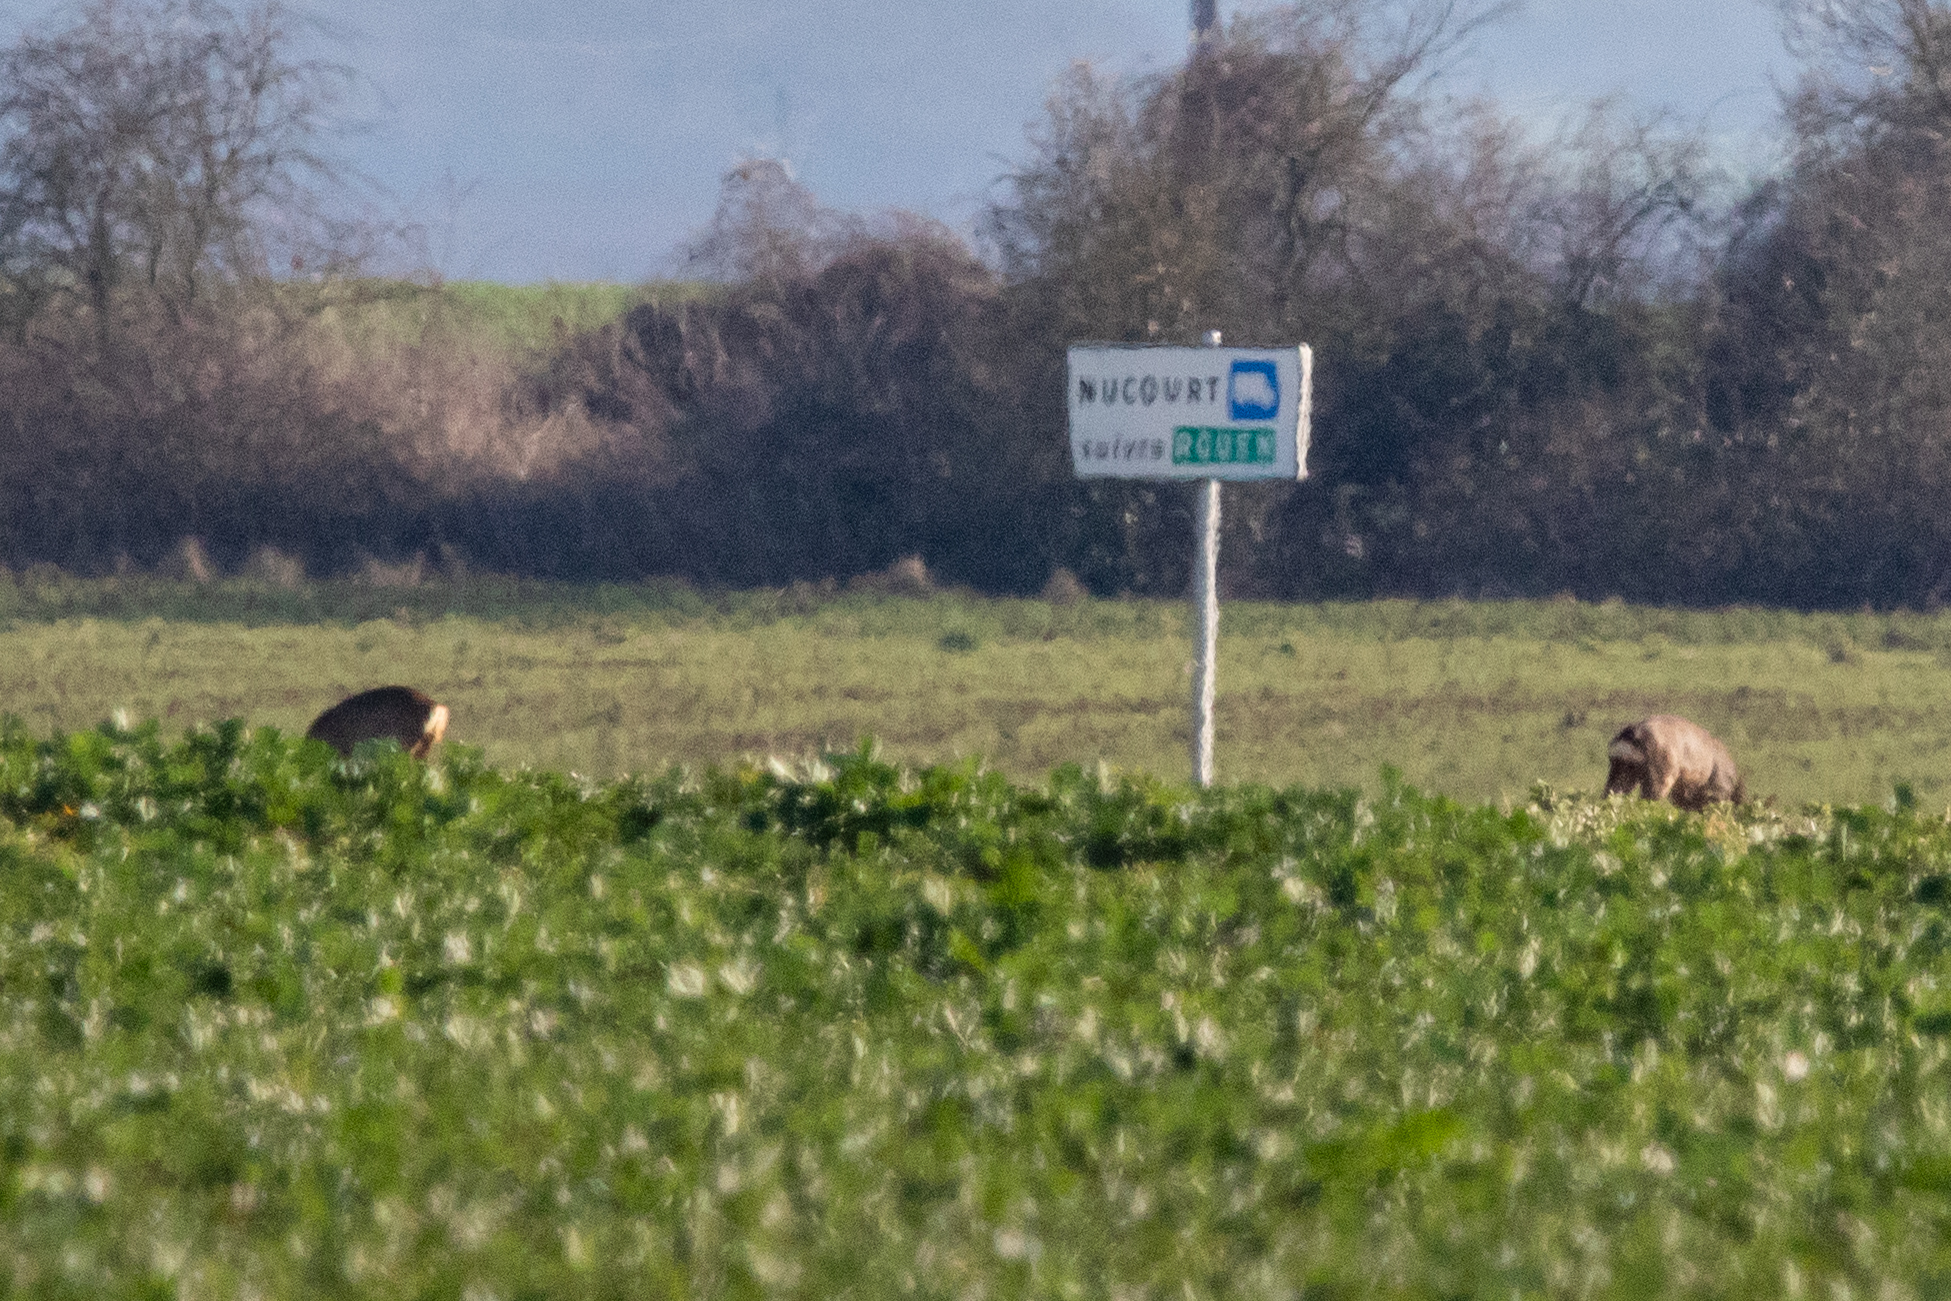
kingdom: Animalia
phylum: Chordata
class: Mammalia
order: Artiodactyla
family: Cervidae
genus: Capreolus
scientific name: Capreolus capreolus
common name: Western roe deer
